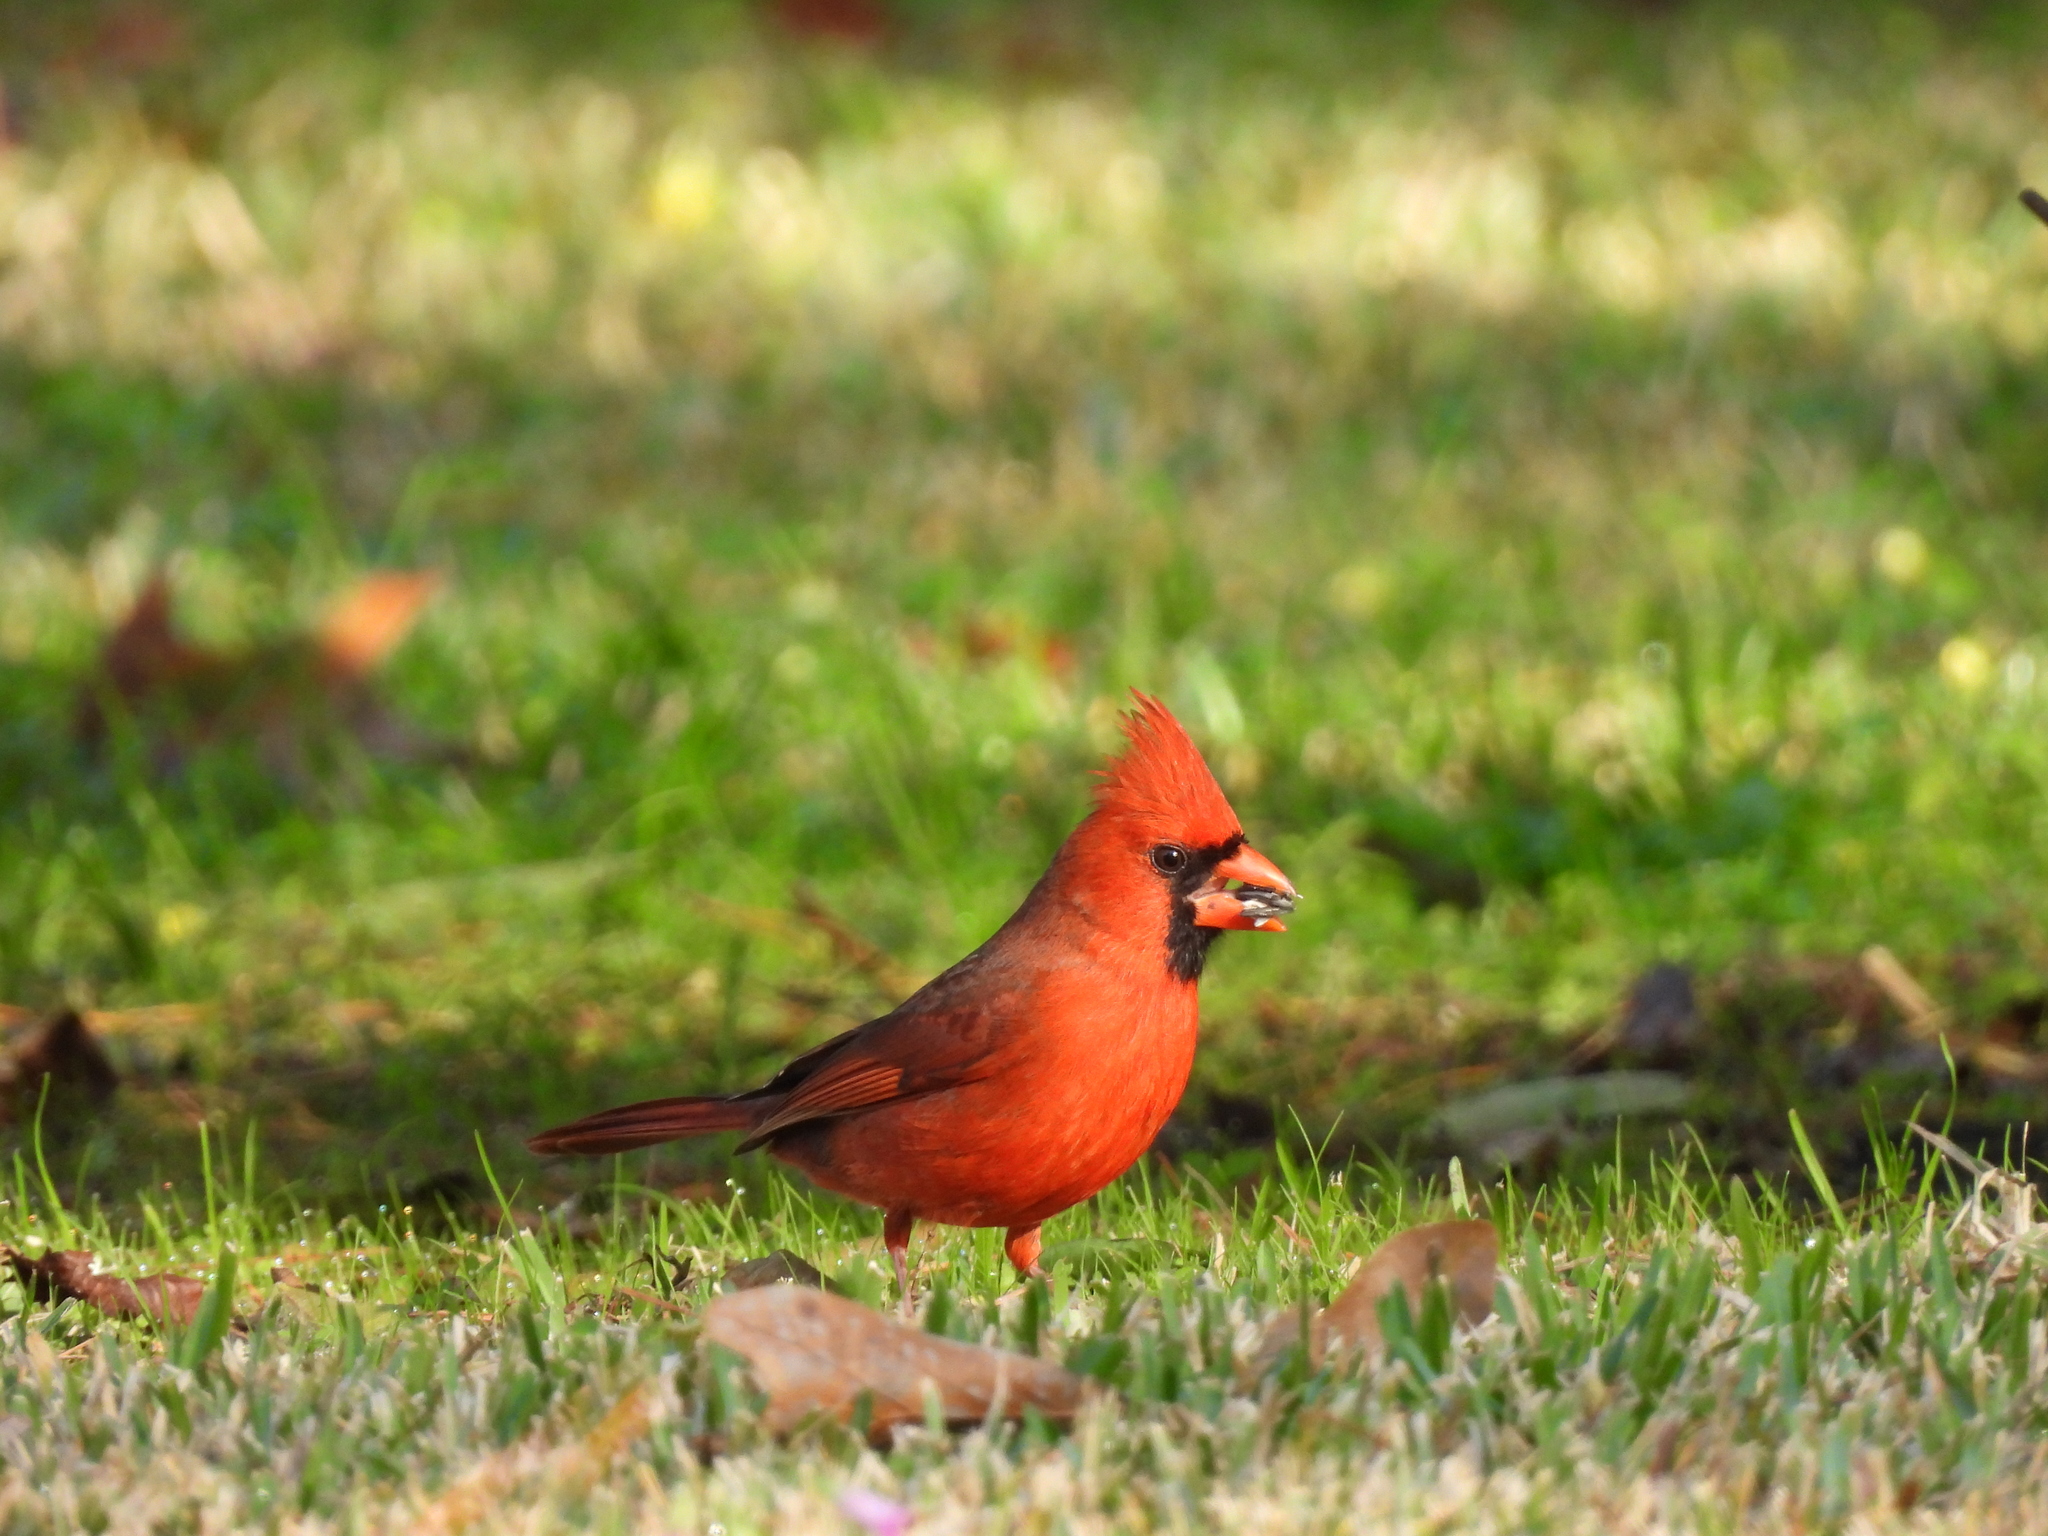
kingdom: Animalia
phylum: Chordata
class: Aves
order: Passeriformes
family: Cardinalidae
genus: Cardinalis
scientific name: Cardinalis cardinalis
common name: Northern cardinal
